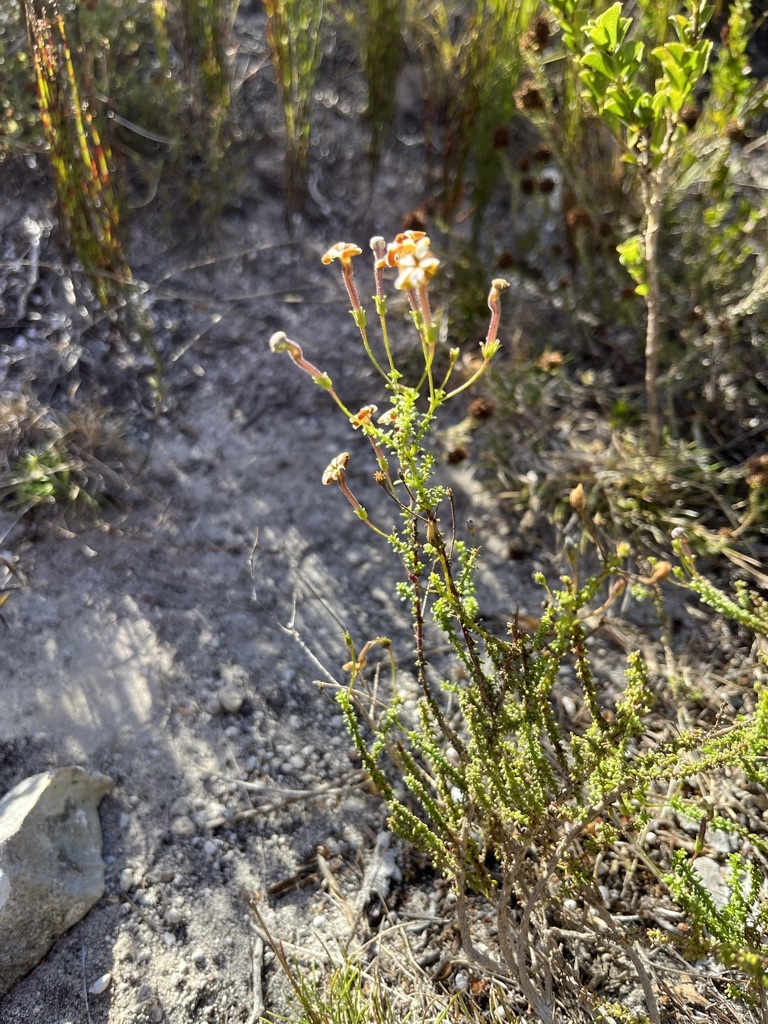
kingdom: Plantae
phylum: Tracheophyta
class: Magnoliopsida
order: Lamiales
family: Scrophulariaceae
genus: Jamesbrittenia
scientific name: Jamesbrittenia albomarginata
